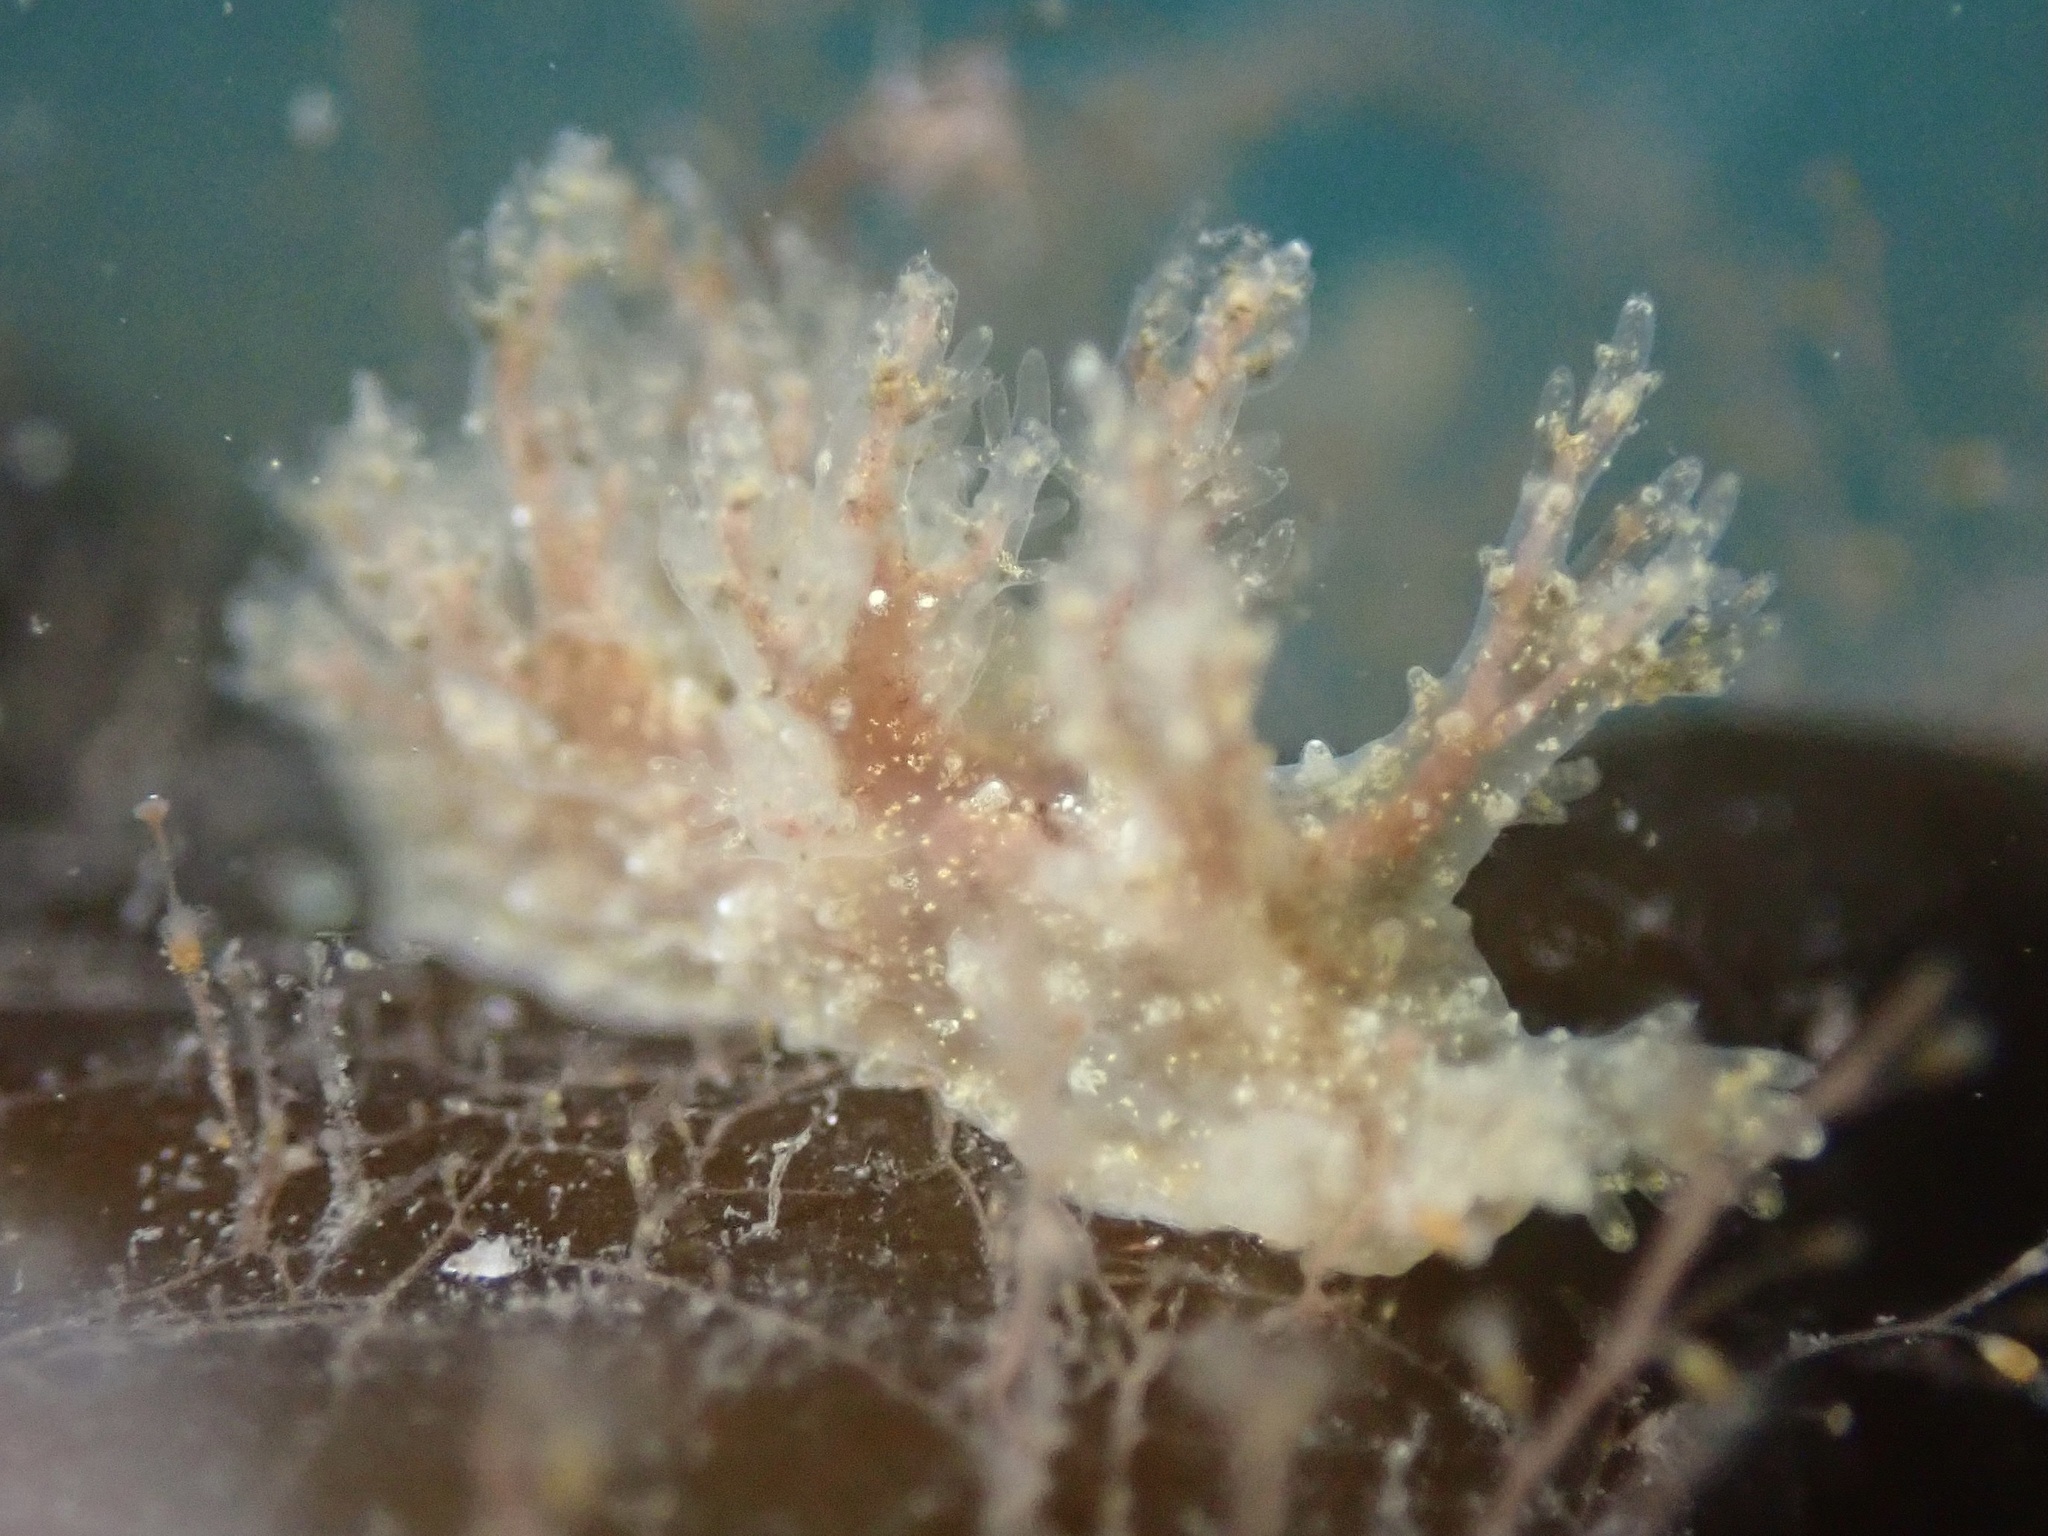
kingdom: Animalia
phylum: Mollusca
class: Gastropoda
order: Nudibranchia
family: Dendronotidae
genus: Dendronotus
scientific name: Dendronotus venustus
